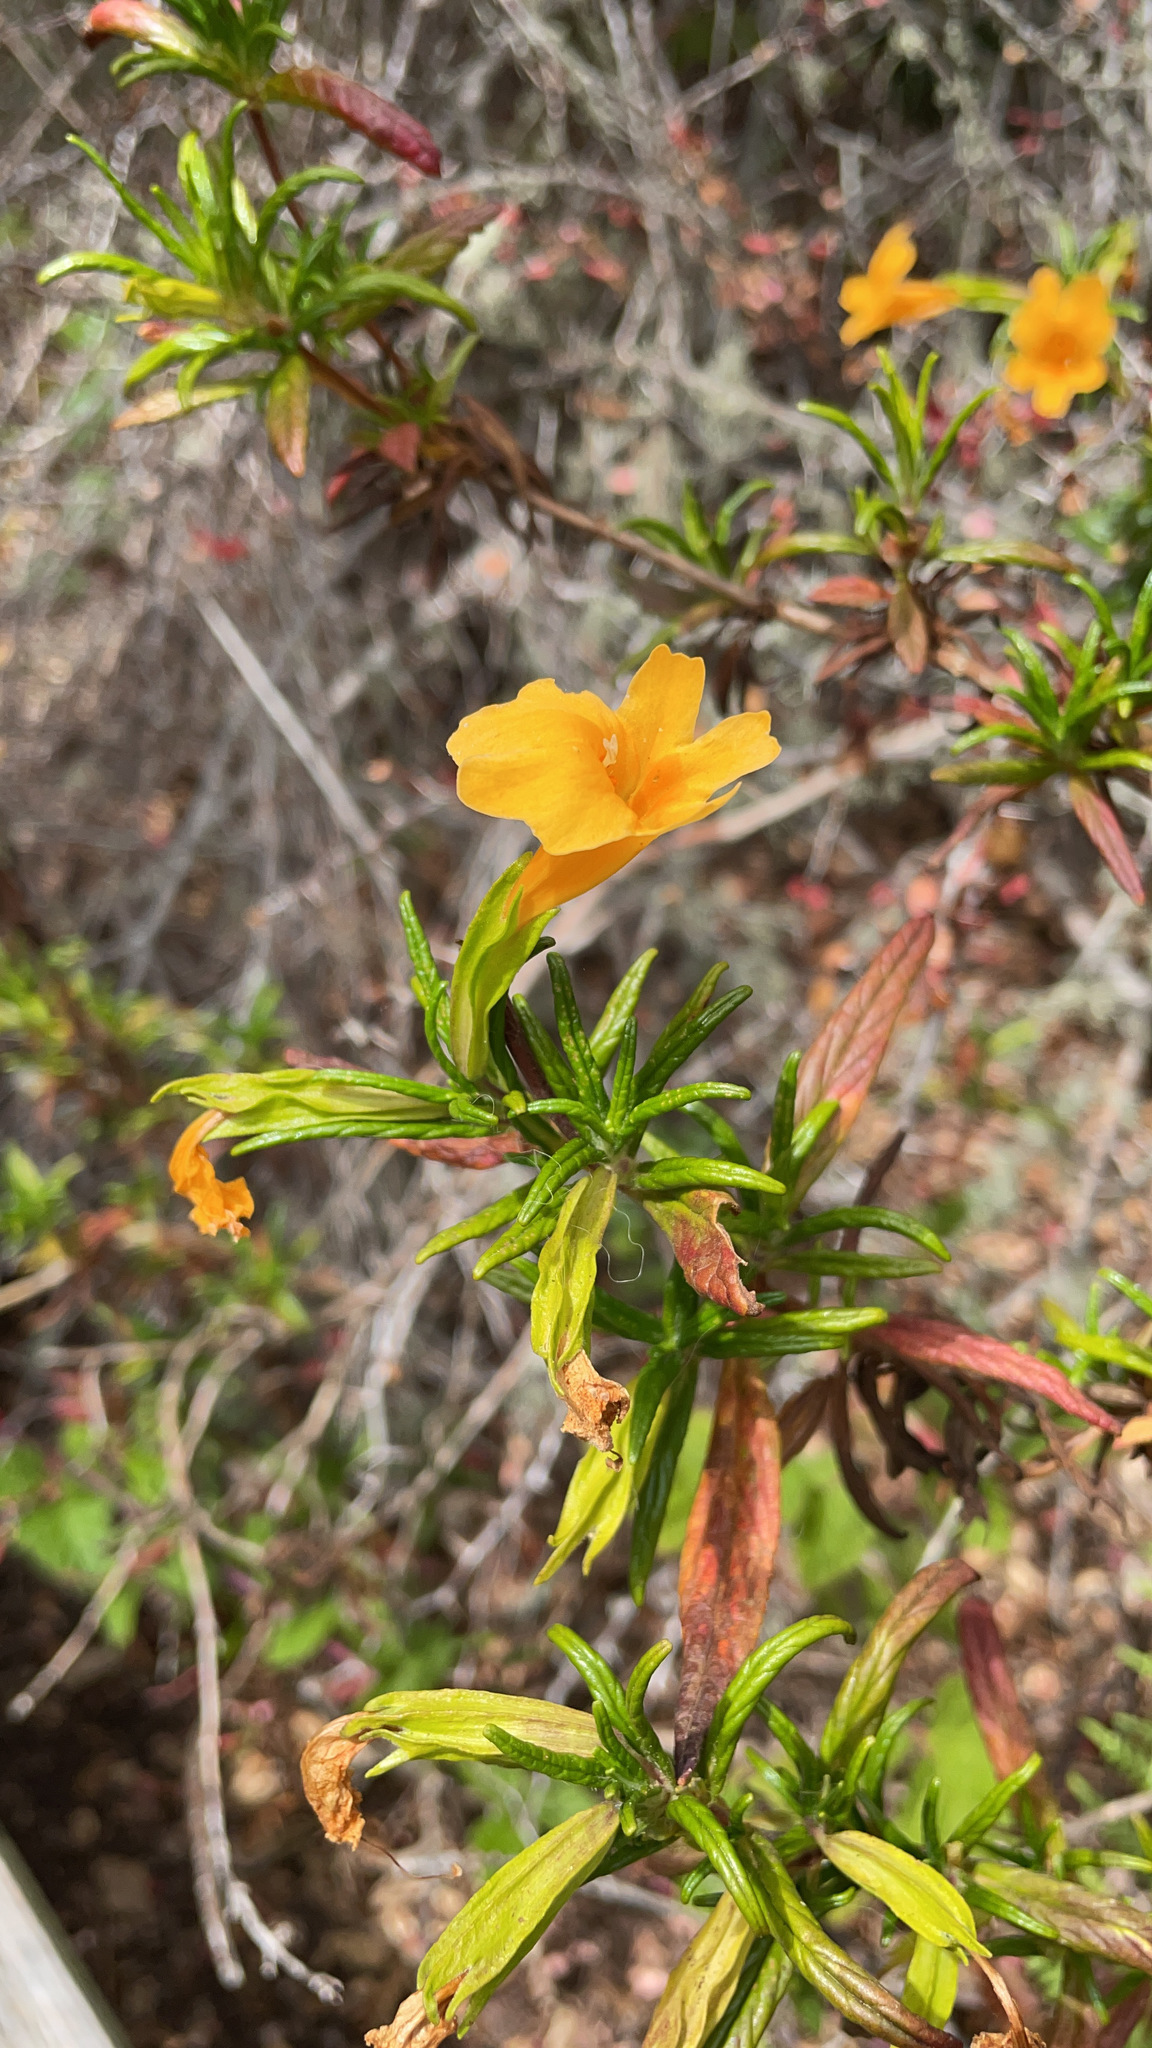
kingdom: Plantae
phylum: Tracheophyta
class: Magnoliopsida
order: Lamiales
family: Phrymaceae
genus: Diplacus
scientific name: Diplacus aurantiacus
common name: Bush monkey-flower
